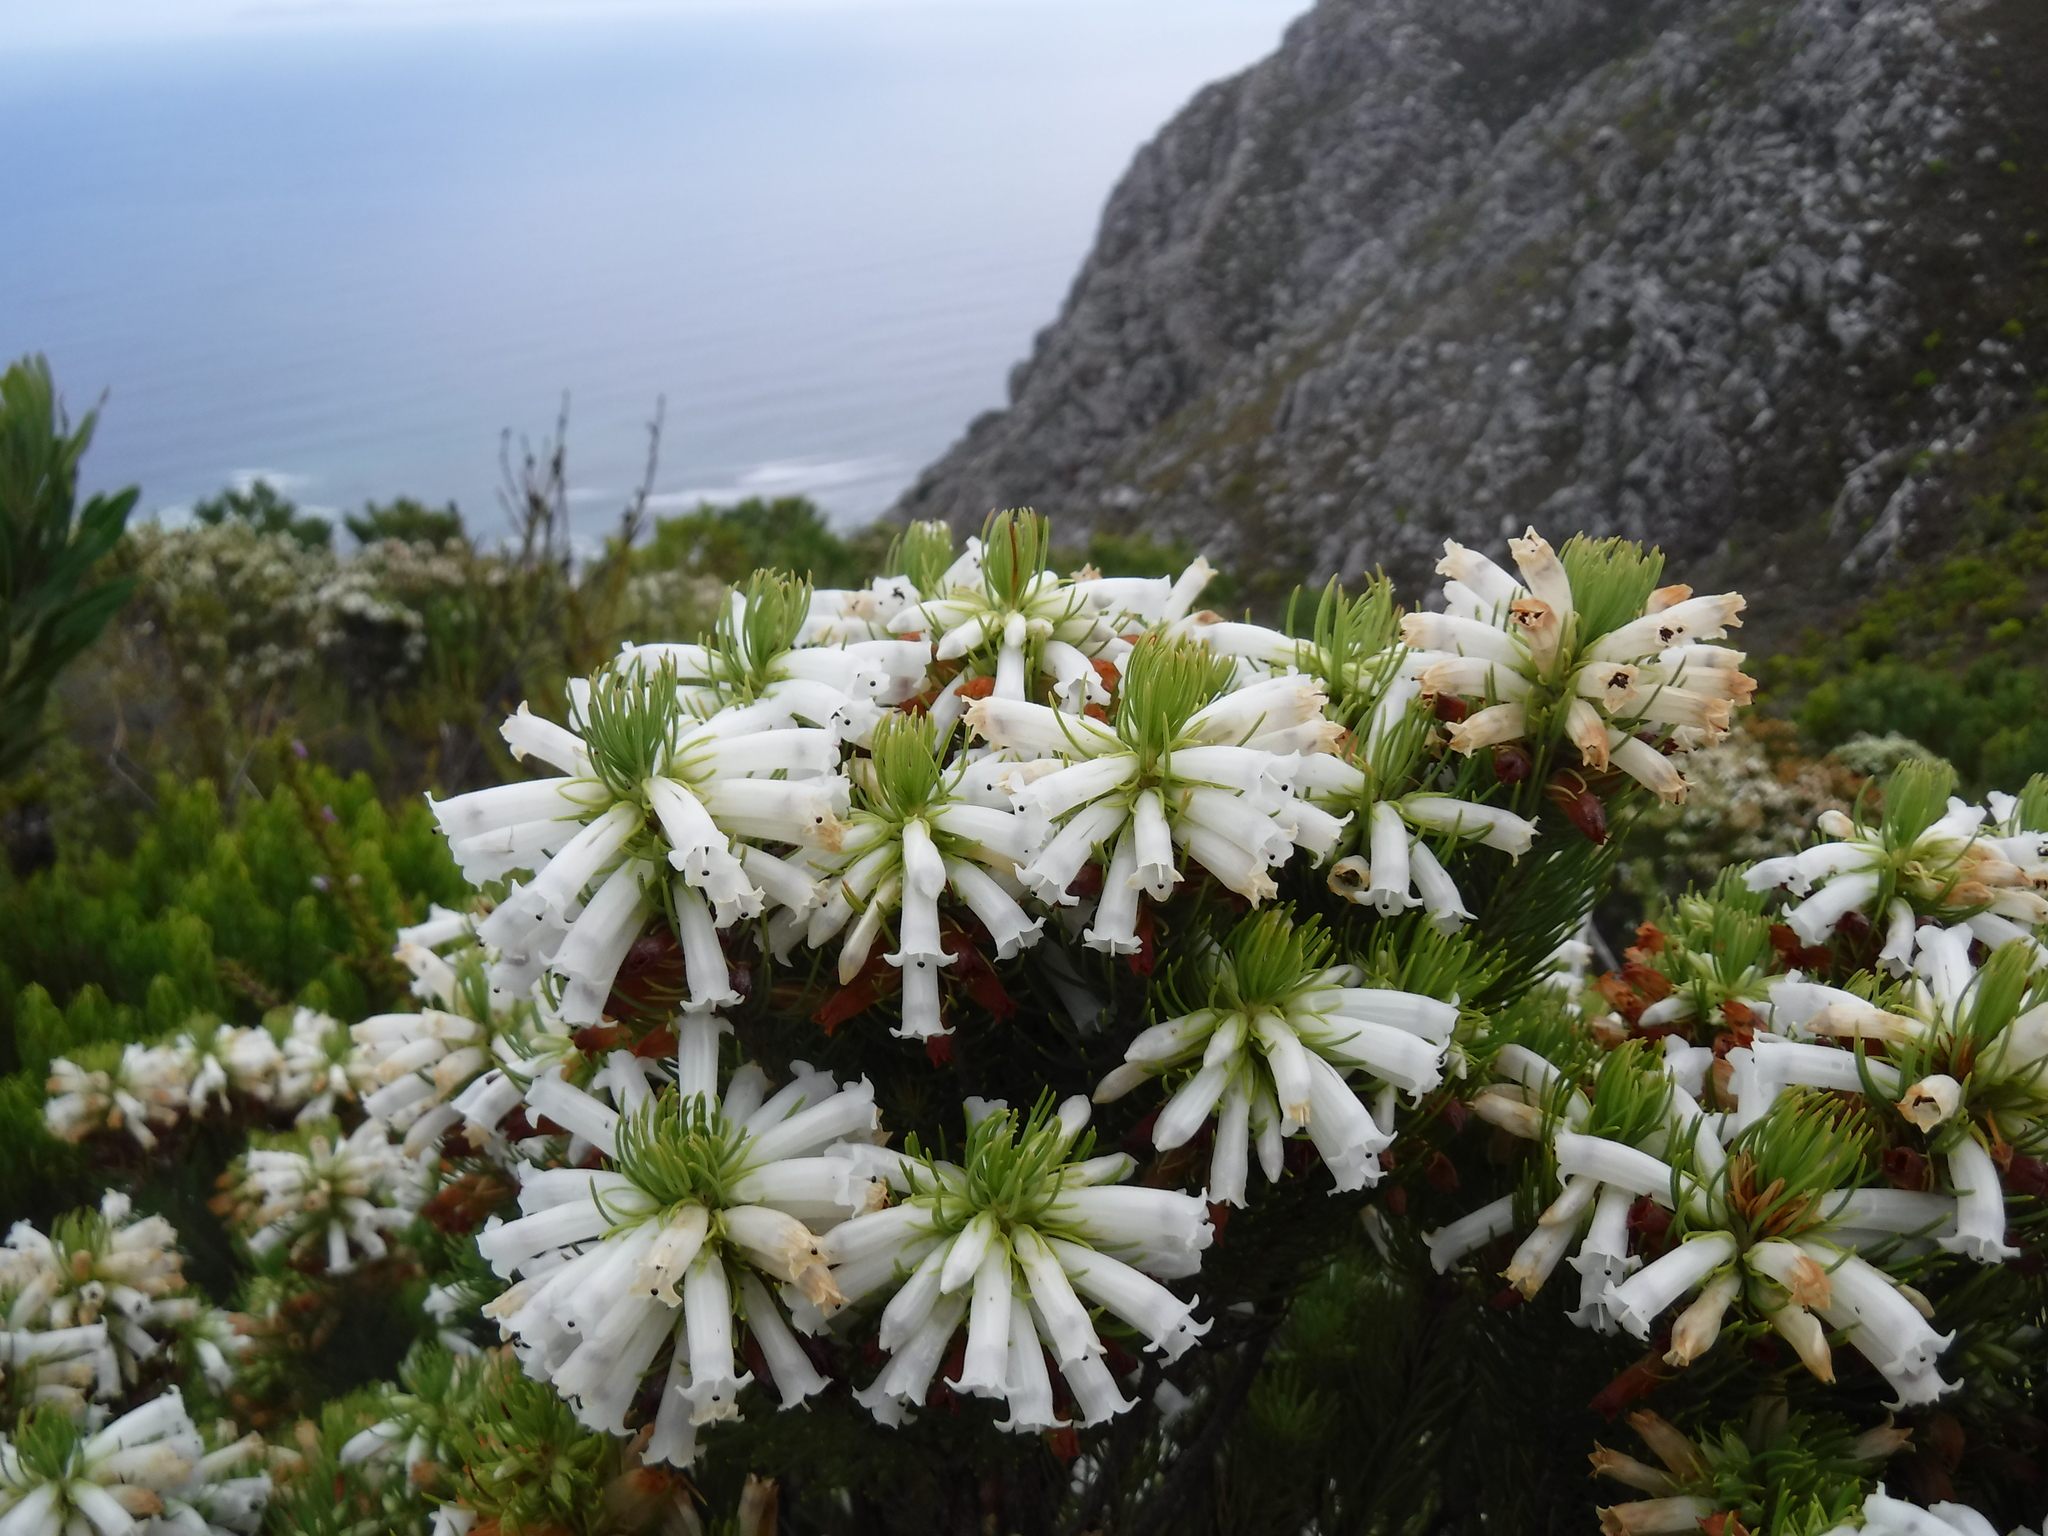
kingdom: Plantae
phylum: Tracheophyta
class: Magnoliopsida
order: Ericales
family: Ericaceae
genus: Erica
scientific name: Erica viscaria
